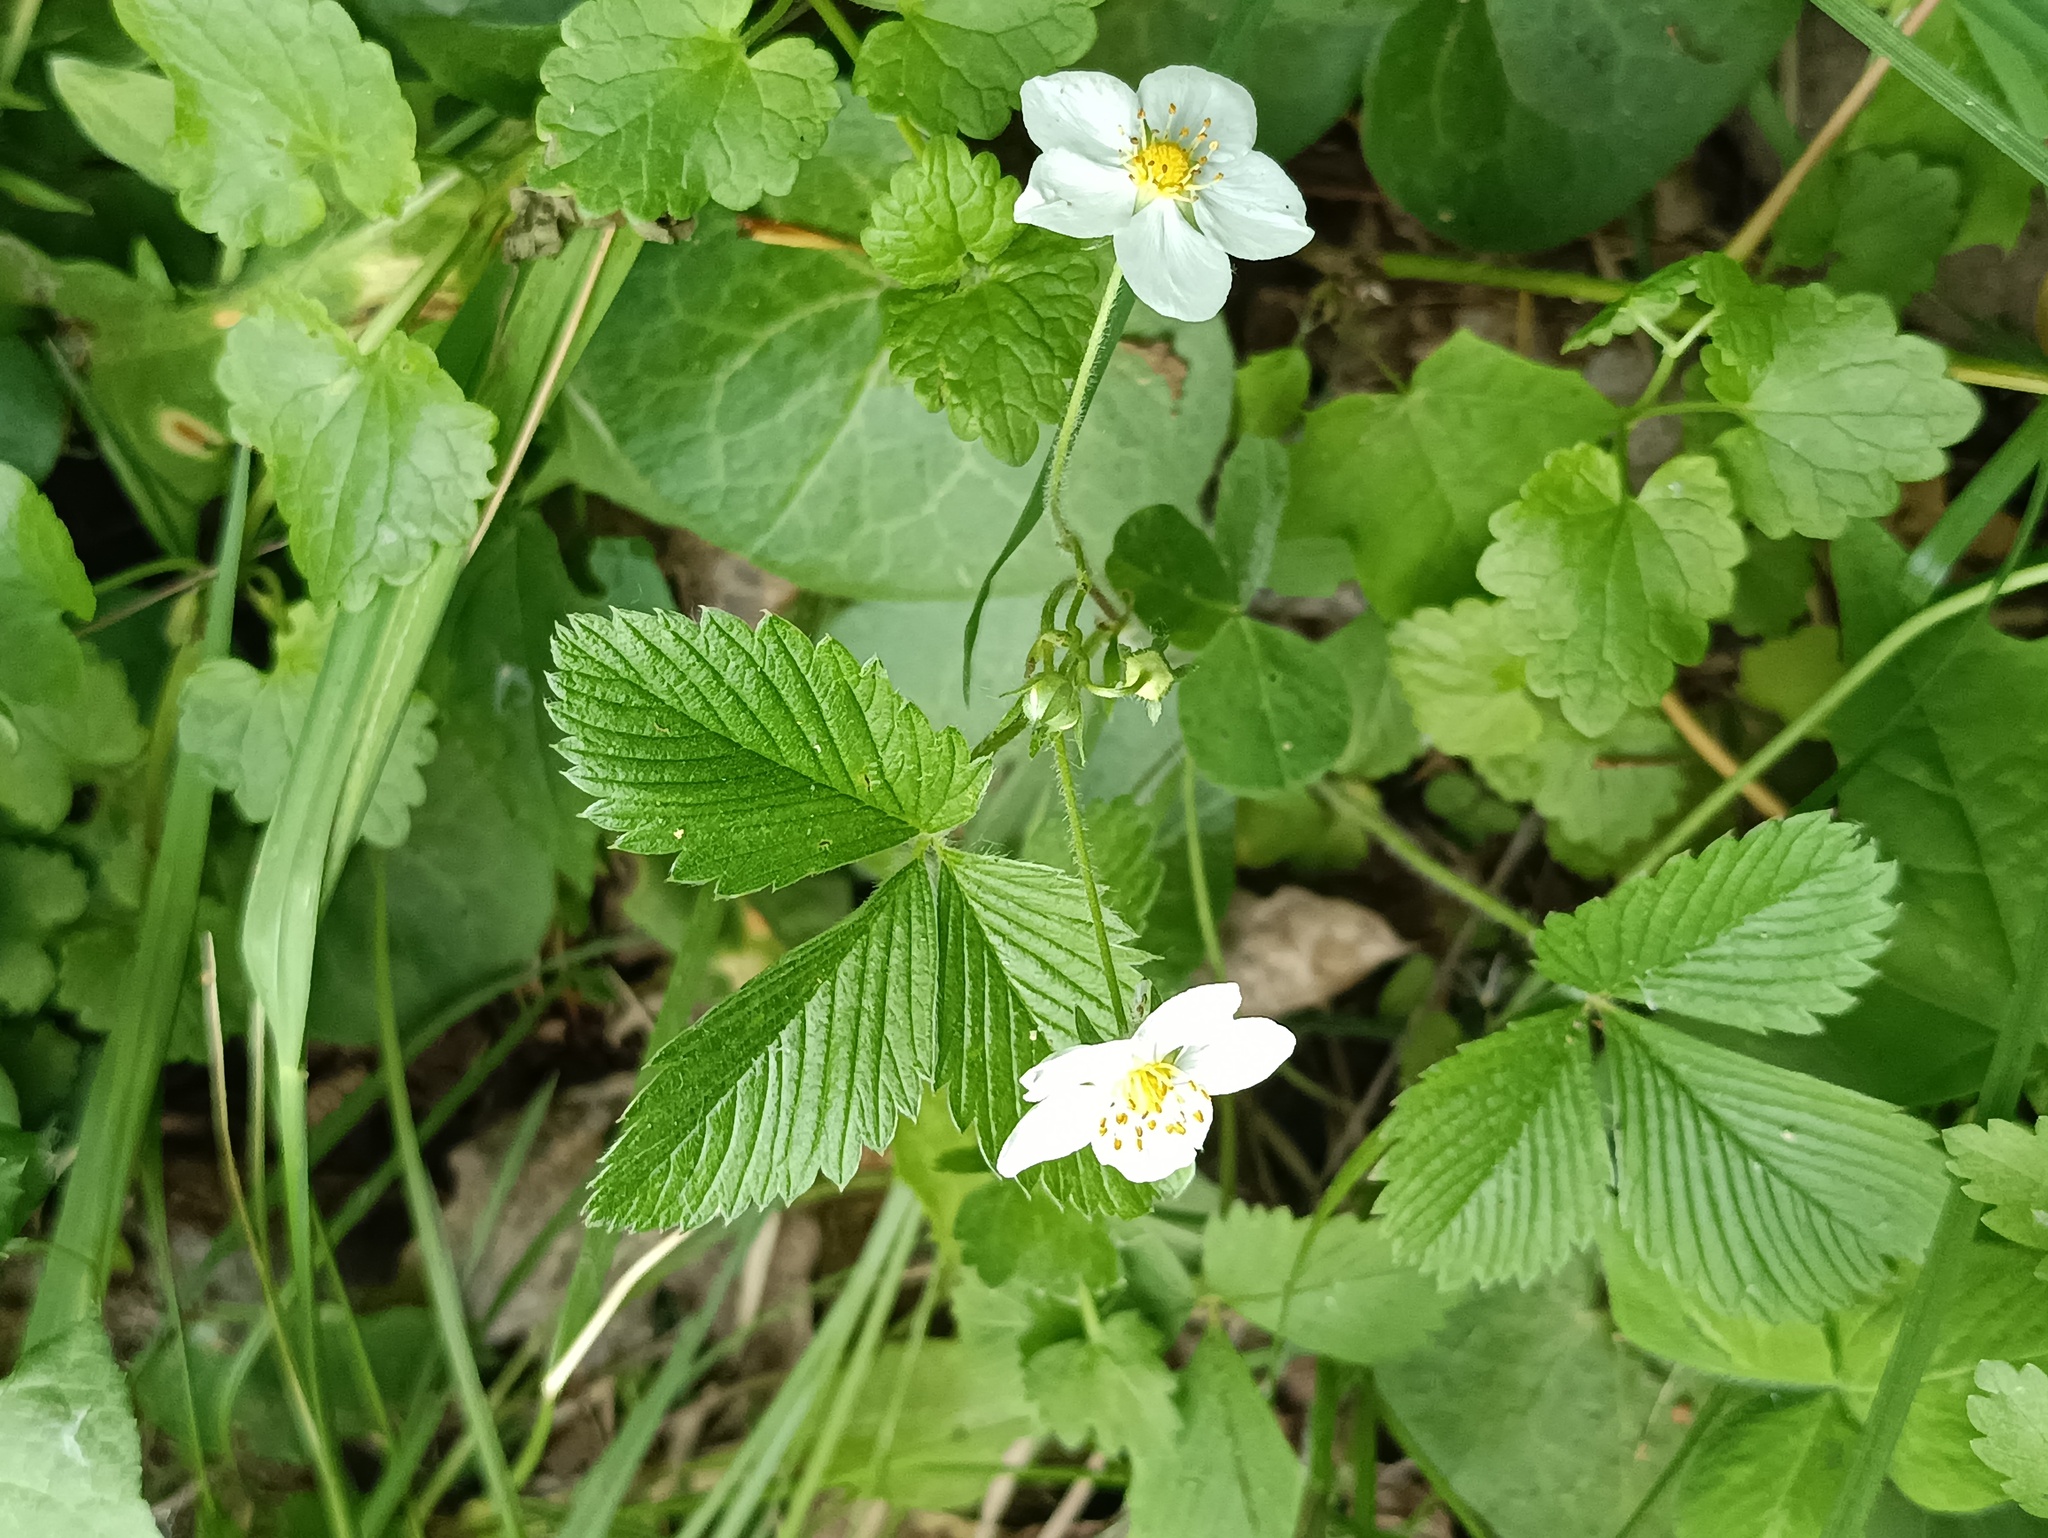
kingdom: Plantae
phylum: Tracheophyta
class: Magnoliopsida
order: Rosales
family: Rosaceae
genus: Fragaria
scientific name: Fragaria viridis
